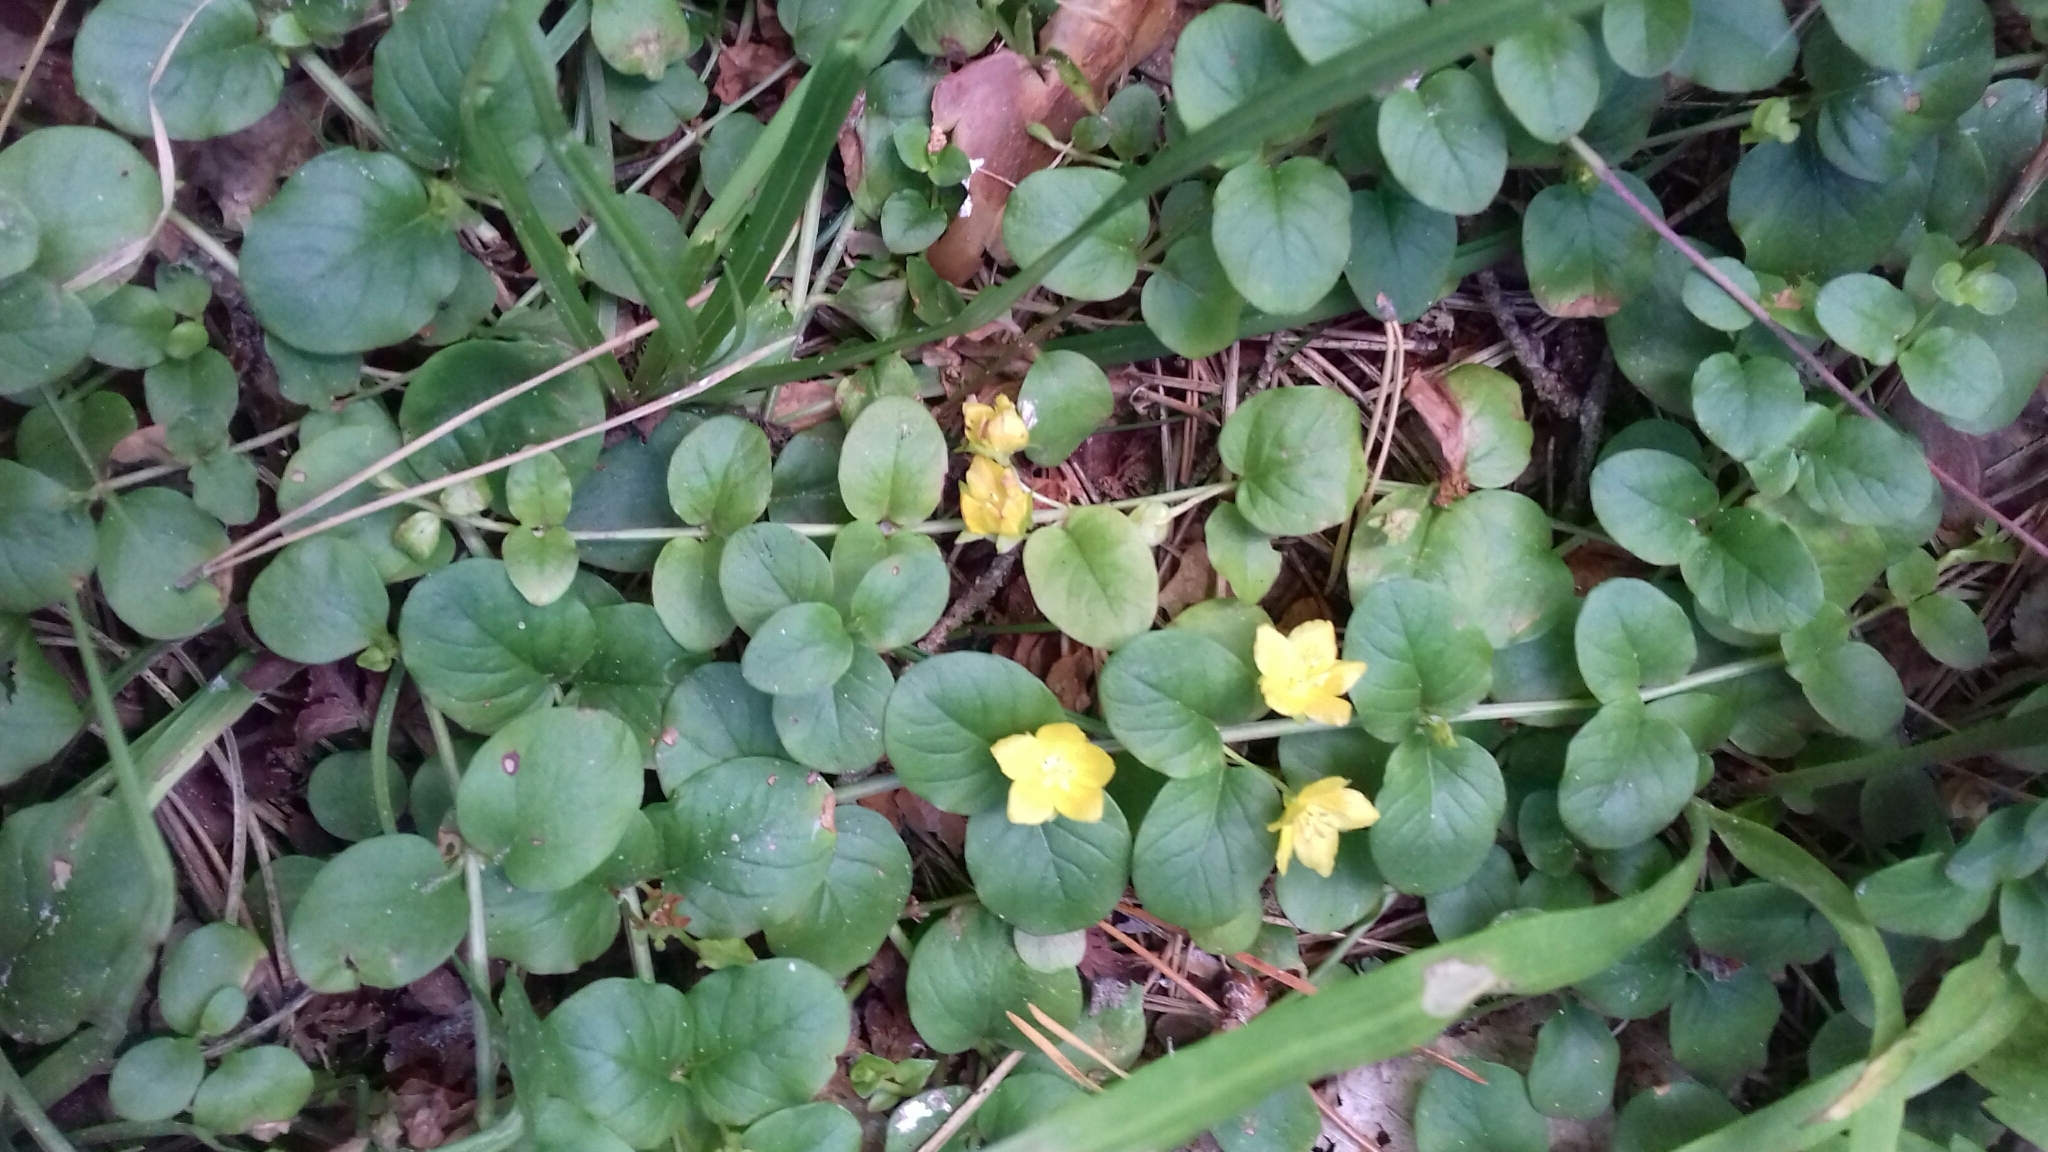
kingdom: Plantae
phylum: Tracheophyta
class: Magnoliopsida
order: Ericales
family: Primulaceae
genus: Lysimachia
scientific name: Lysimachia nummularia
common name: Moneywort
